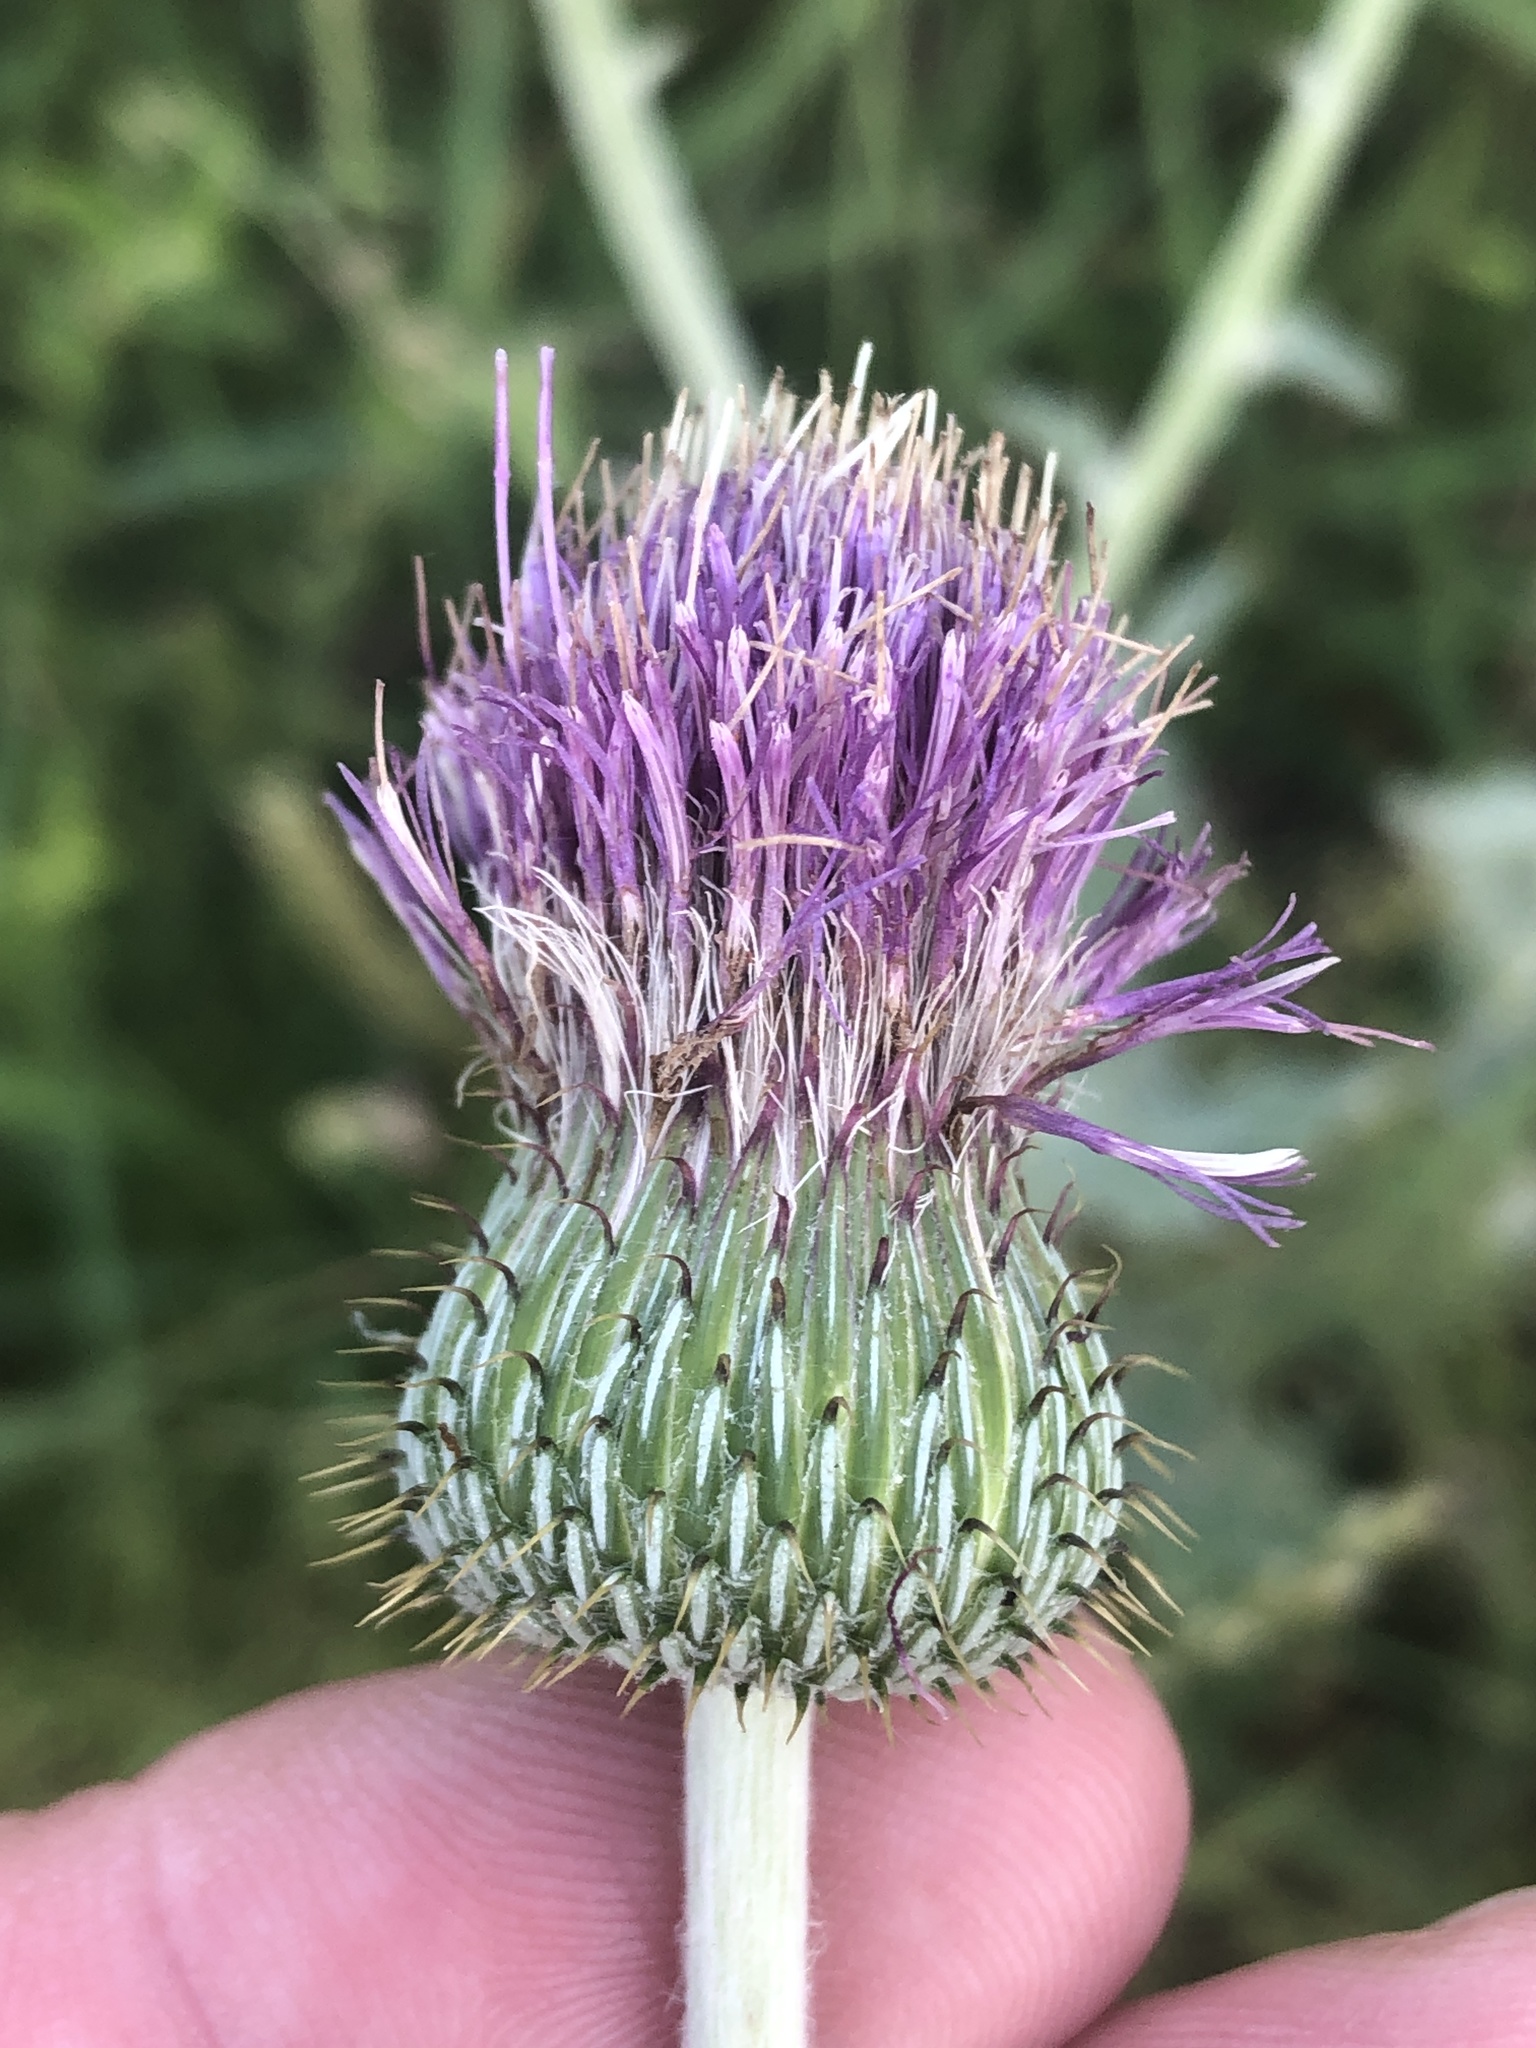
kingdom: Plantae
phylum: Tracheophyta
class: Magnoliopsida
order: Asterales
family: Asteraceae
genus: Cirsium
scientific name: Cirsium texanum
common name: Texas purple thistle
